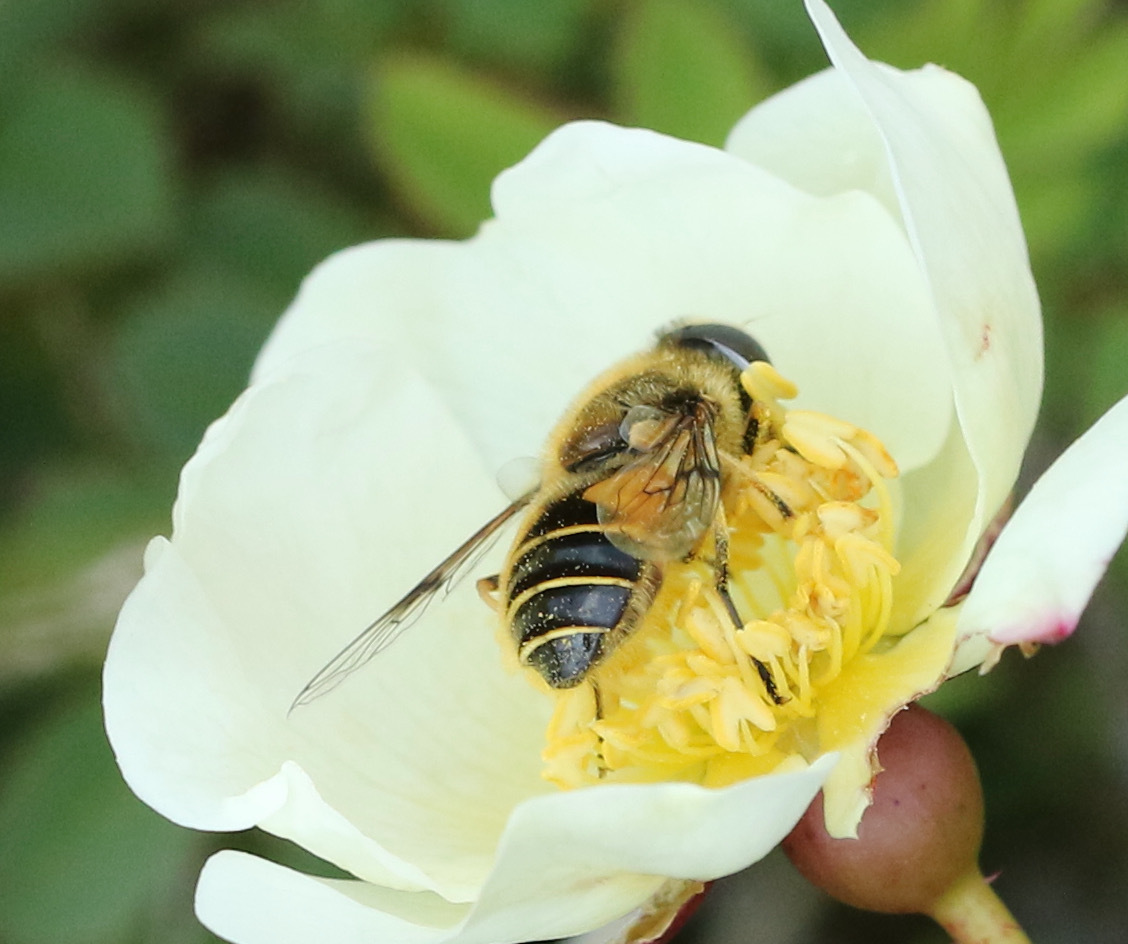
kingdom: Animalia
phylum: Arthropoda
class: Insecta
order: Diptera
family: Syrphidae
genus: Cheilosia
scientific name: Cheilosia morio
